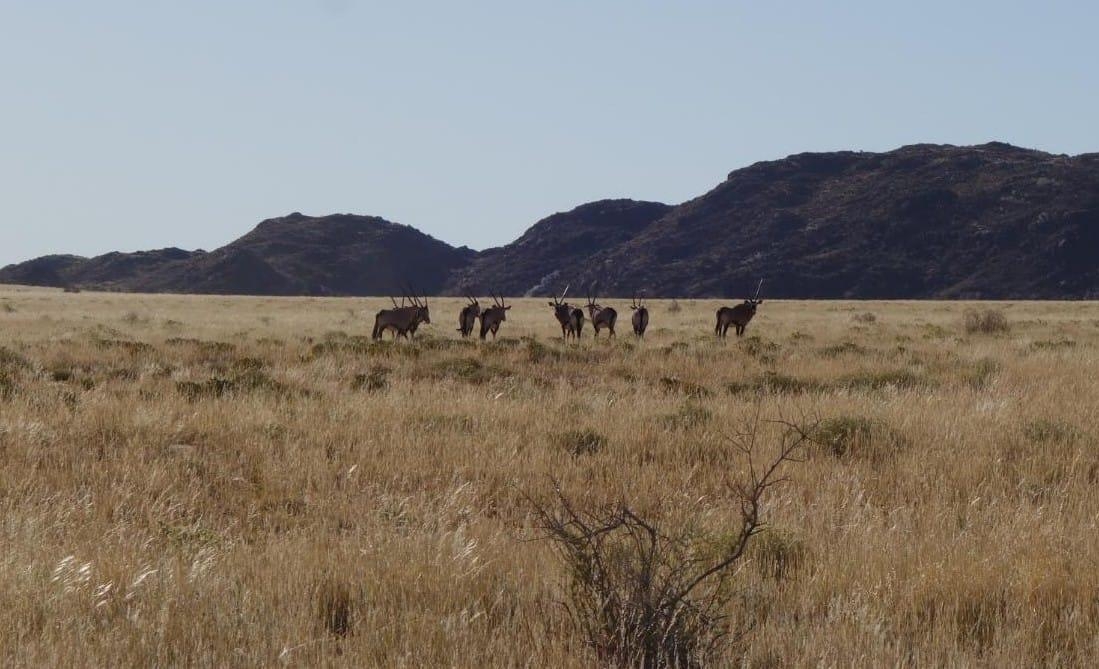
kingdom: Animalia
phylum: Chordata
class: Mammalia
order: Artiodactyla
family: Bovidae
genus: Oryx
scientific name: Oryx gazella
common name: Gemsbok
